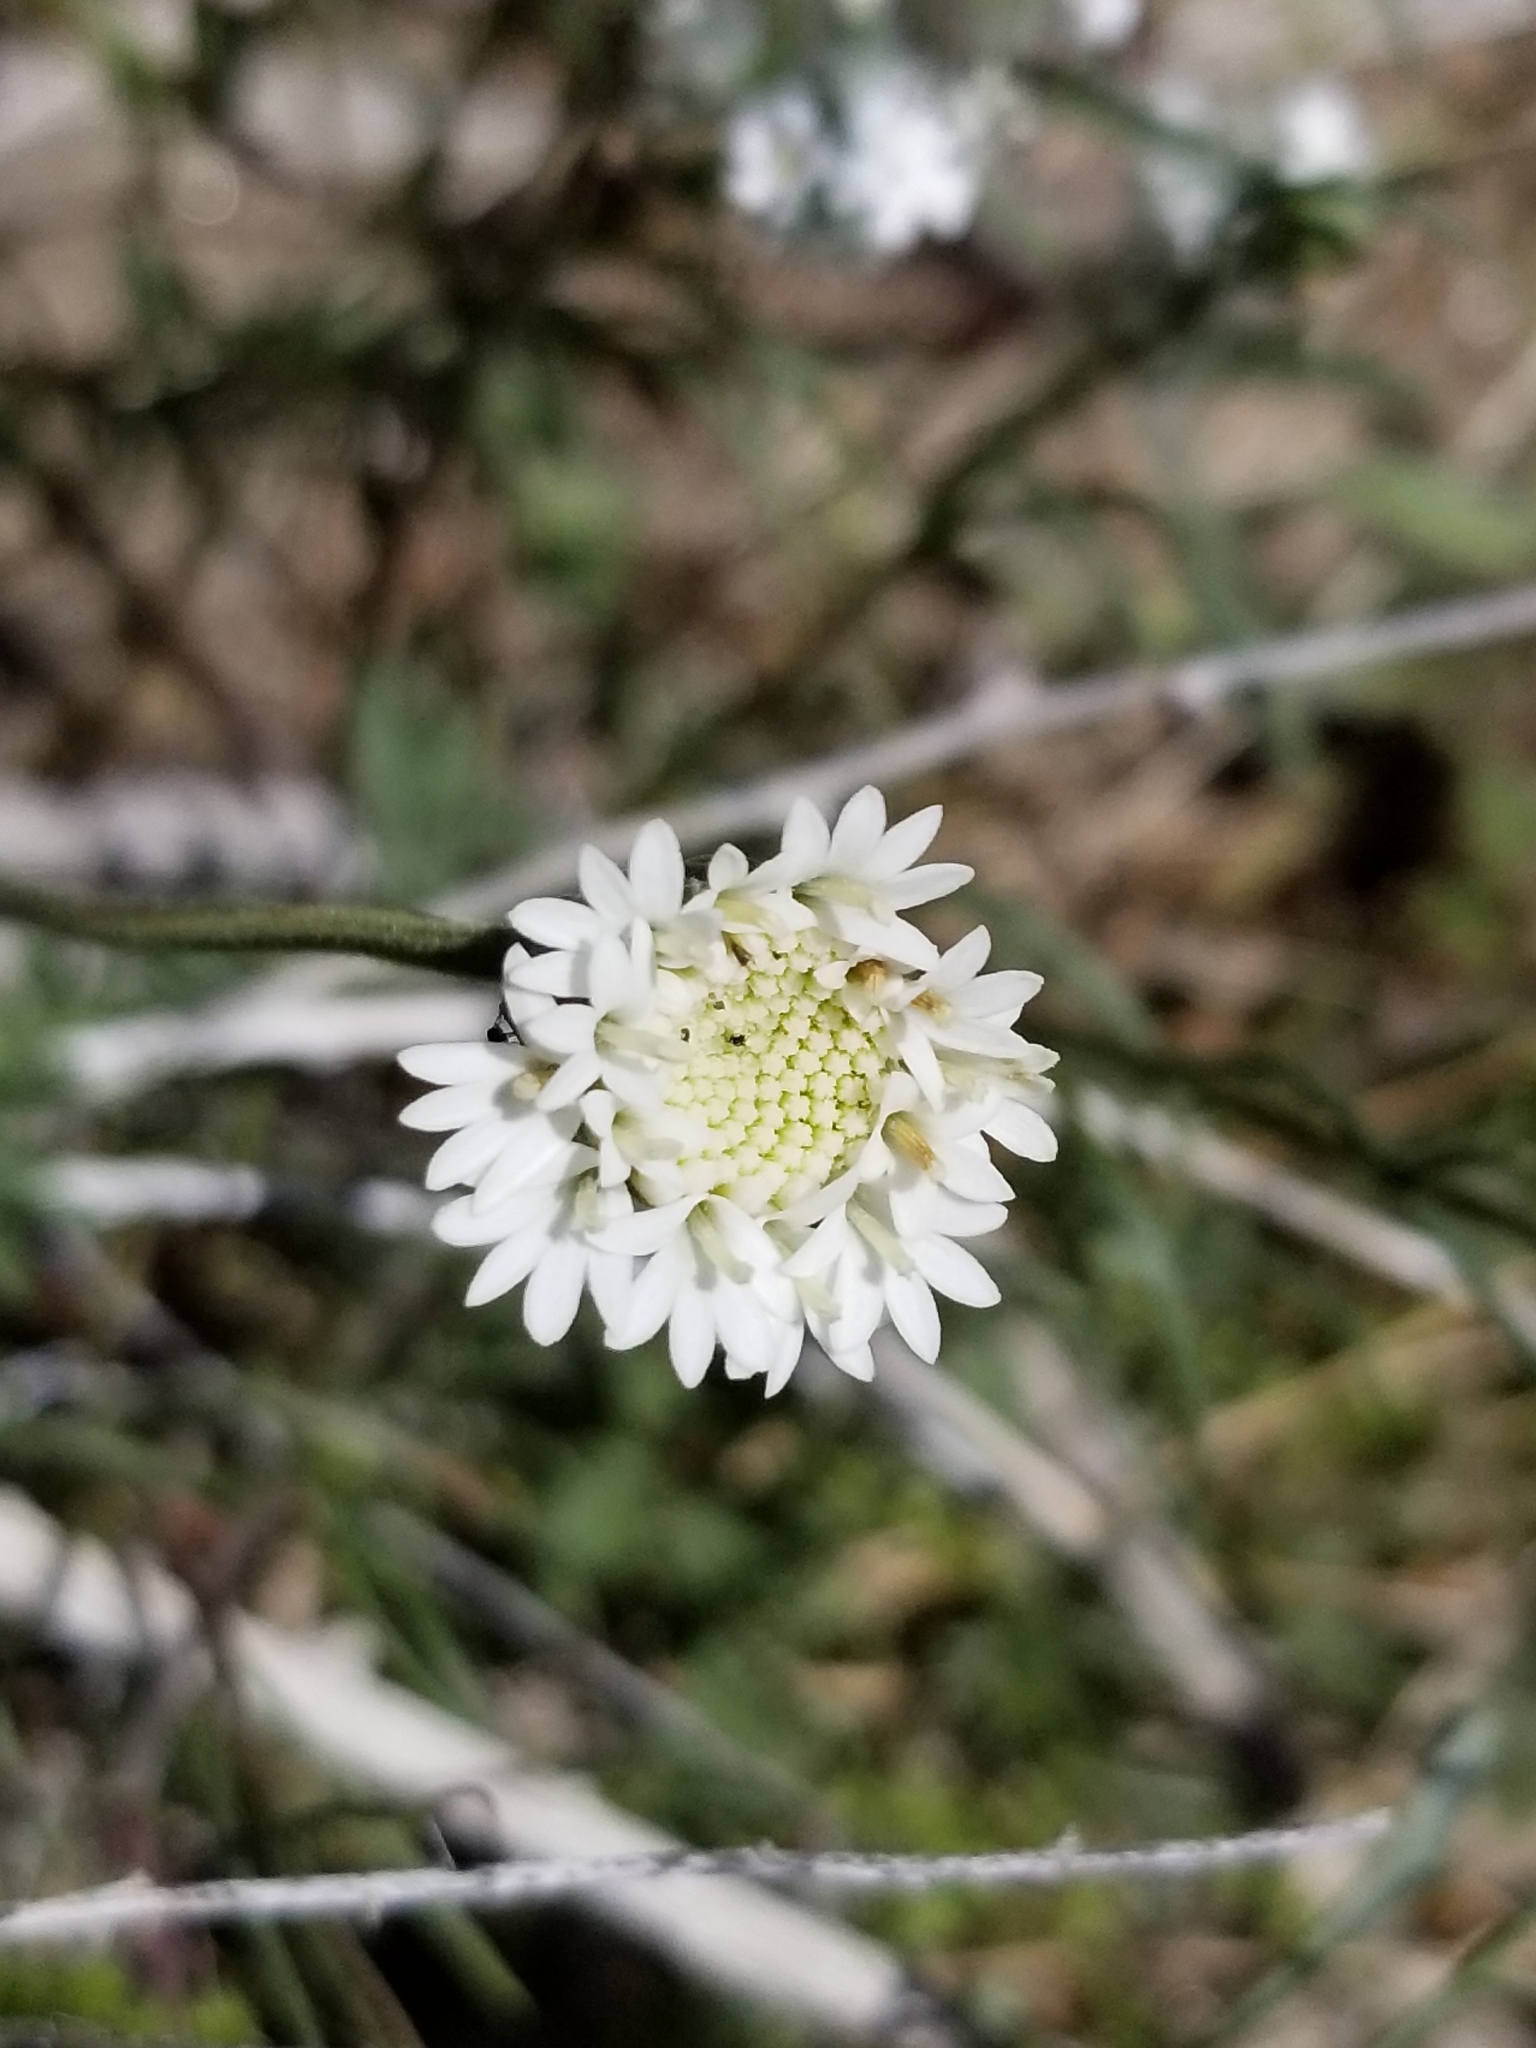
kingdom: Plantae
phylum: Tracheophyta
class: Magnoliopsida
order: Asterales
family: Asteraceae
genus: Chaenactis
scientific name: Chaenactis fremontii
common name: Fremont pincushion
